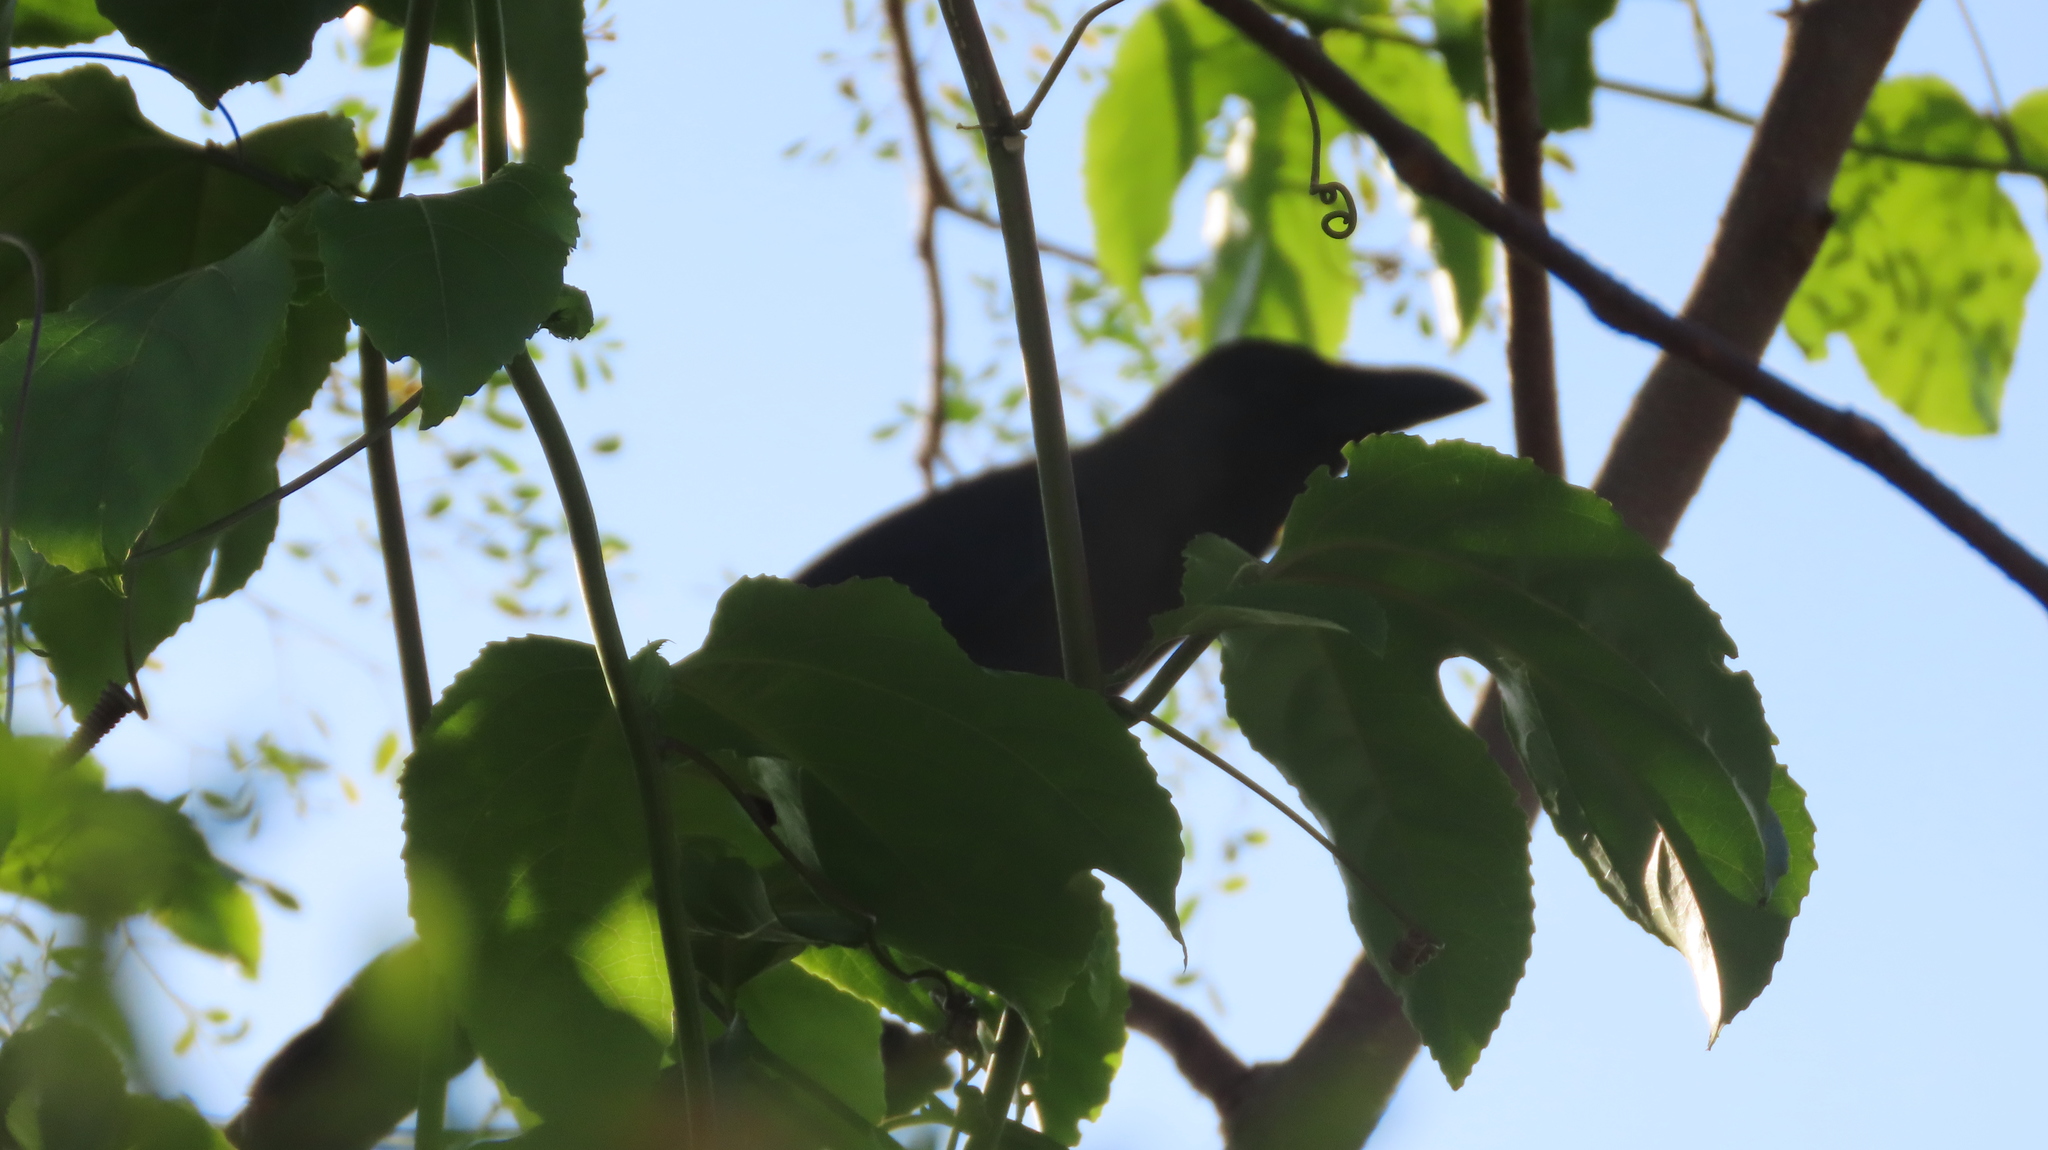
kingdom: Animalia
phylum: Chordata
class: Aves
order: Passeriformes
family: Corvidae
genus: Corvus
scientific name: Corvus splendens
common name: House crow
